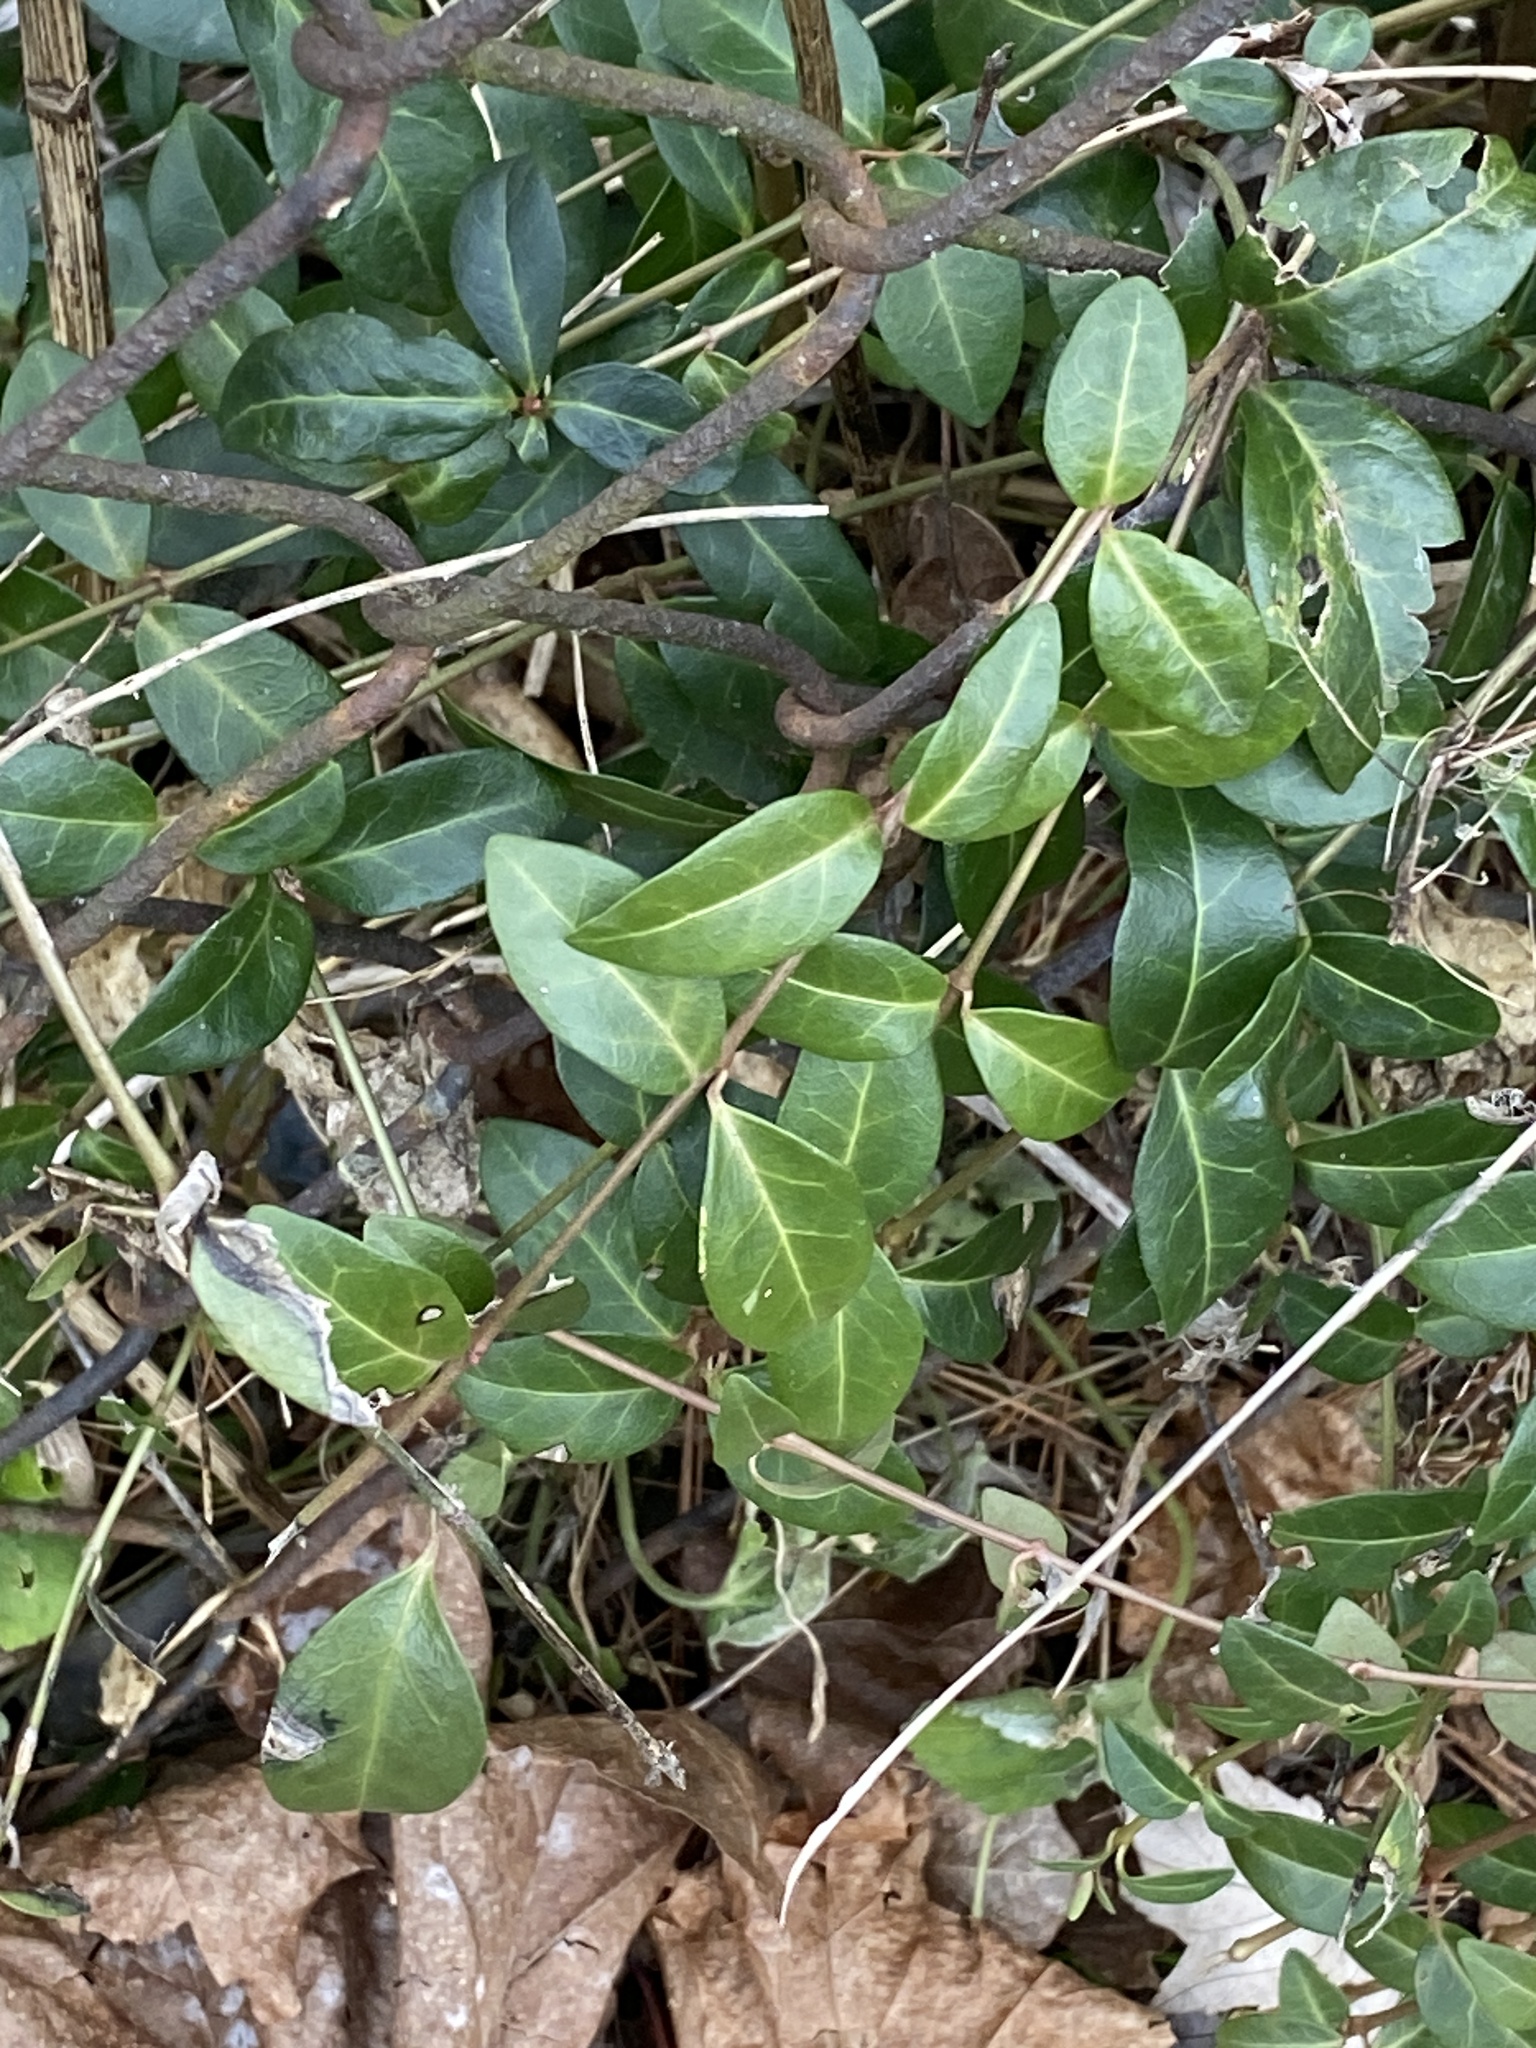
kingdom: Plantae
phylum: Tracheophyta
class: Magnoliopsida
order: Gentianales
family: Apocynaceae
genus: Vinca
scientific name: Vinca minor
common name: Lesser periwinkle
